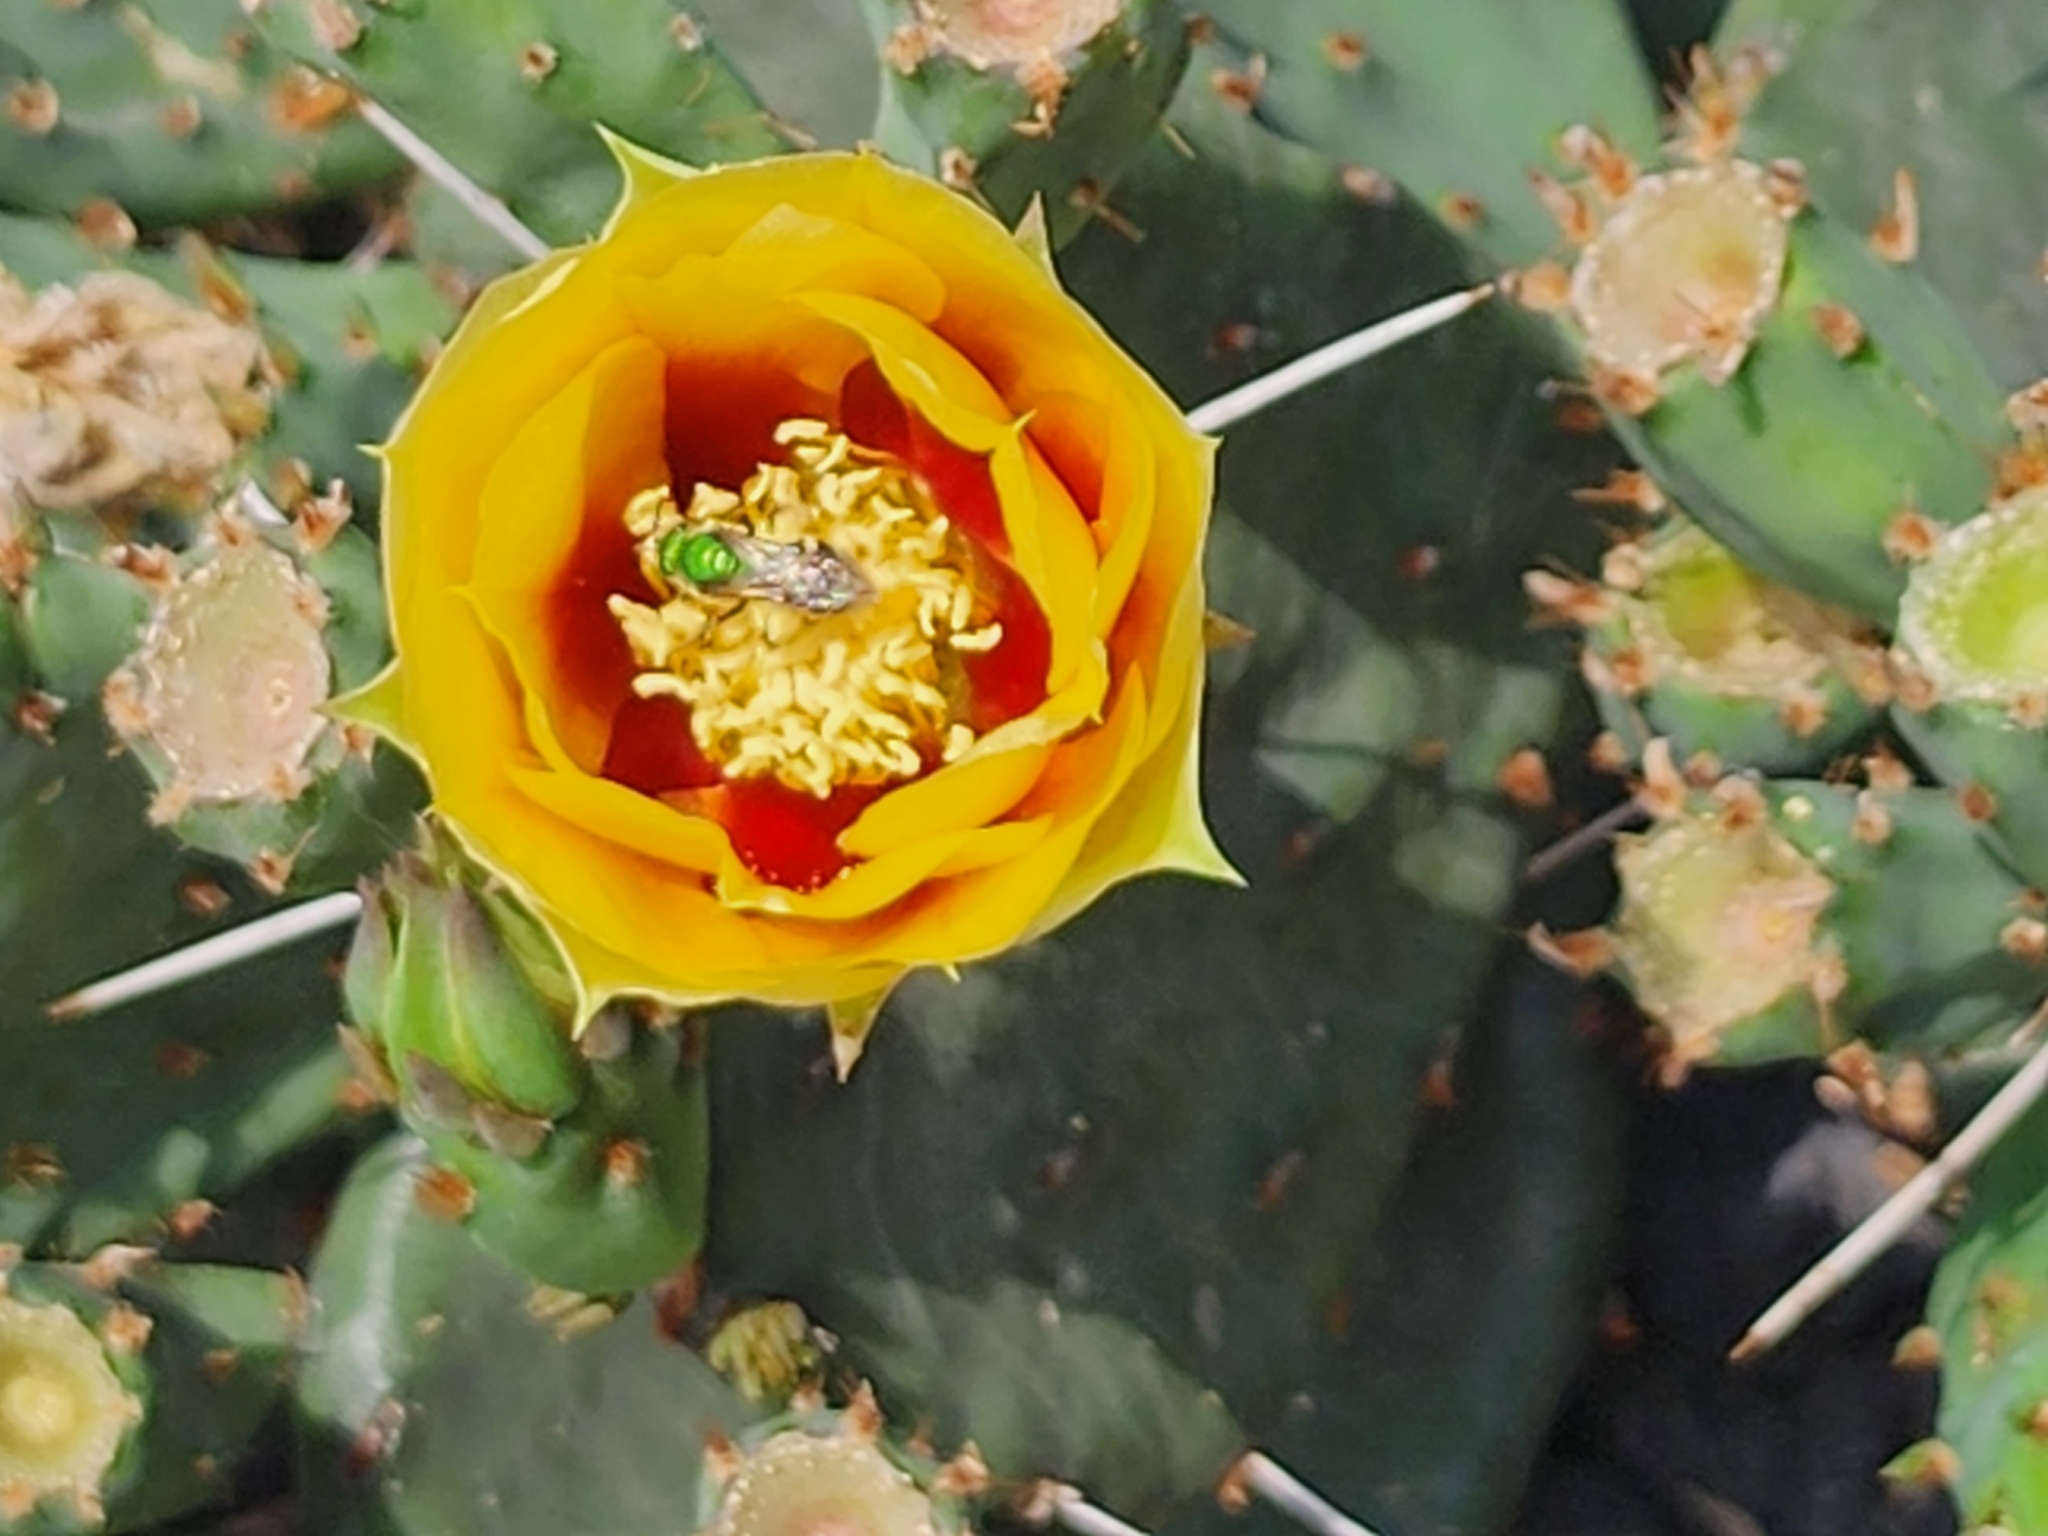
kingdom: Animalia
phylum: Arthropoda
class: Insecta
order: Hymenoptera
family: Halictidae
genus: Agapostemon
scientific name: Agapostemon virescens
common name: Bicolored striped sweat bee
